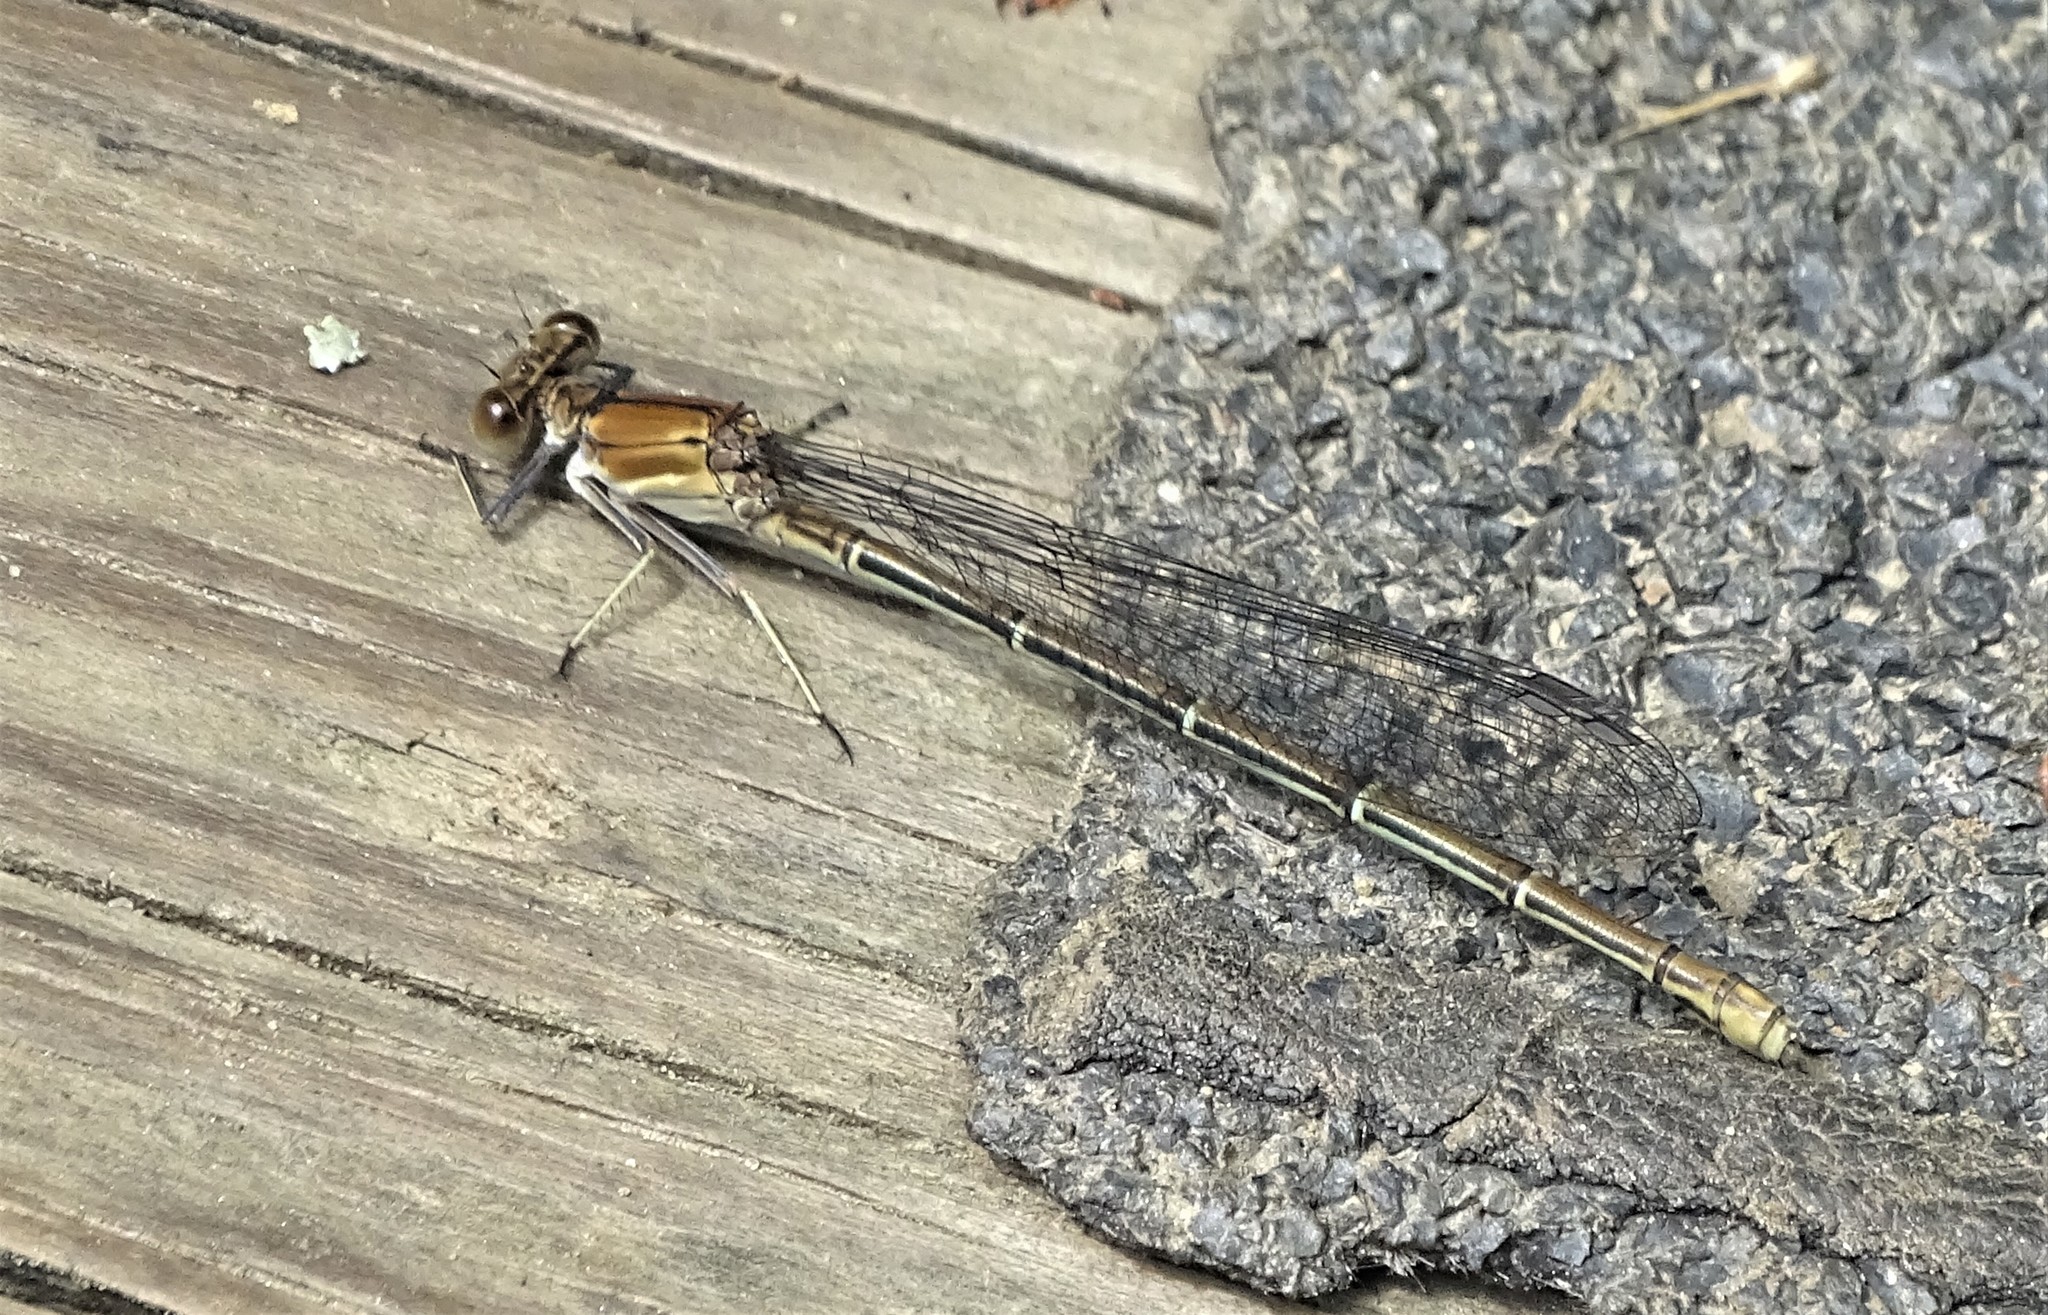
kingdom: Animalia
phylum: Arthropoda
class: Insecta
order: Odonata
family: Coenagrionidae
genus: Argia
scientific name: Argia moesta
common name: Powdered dancer
